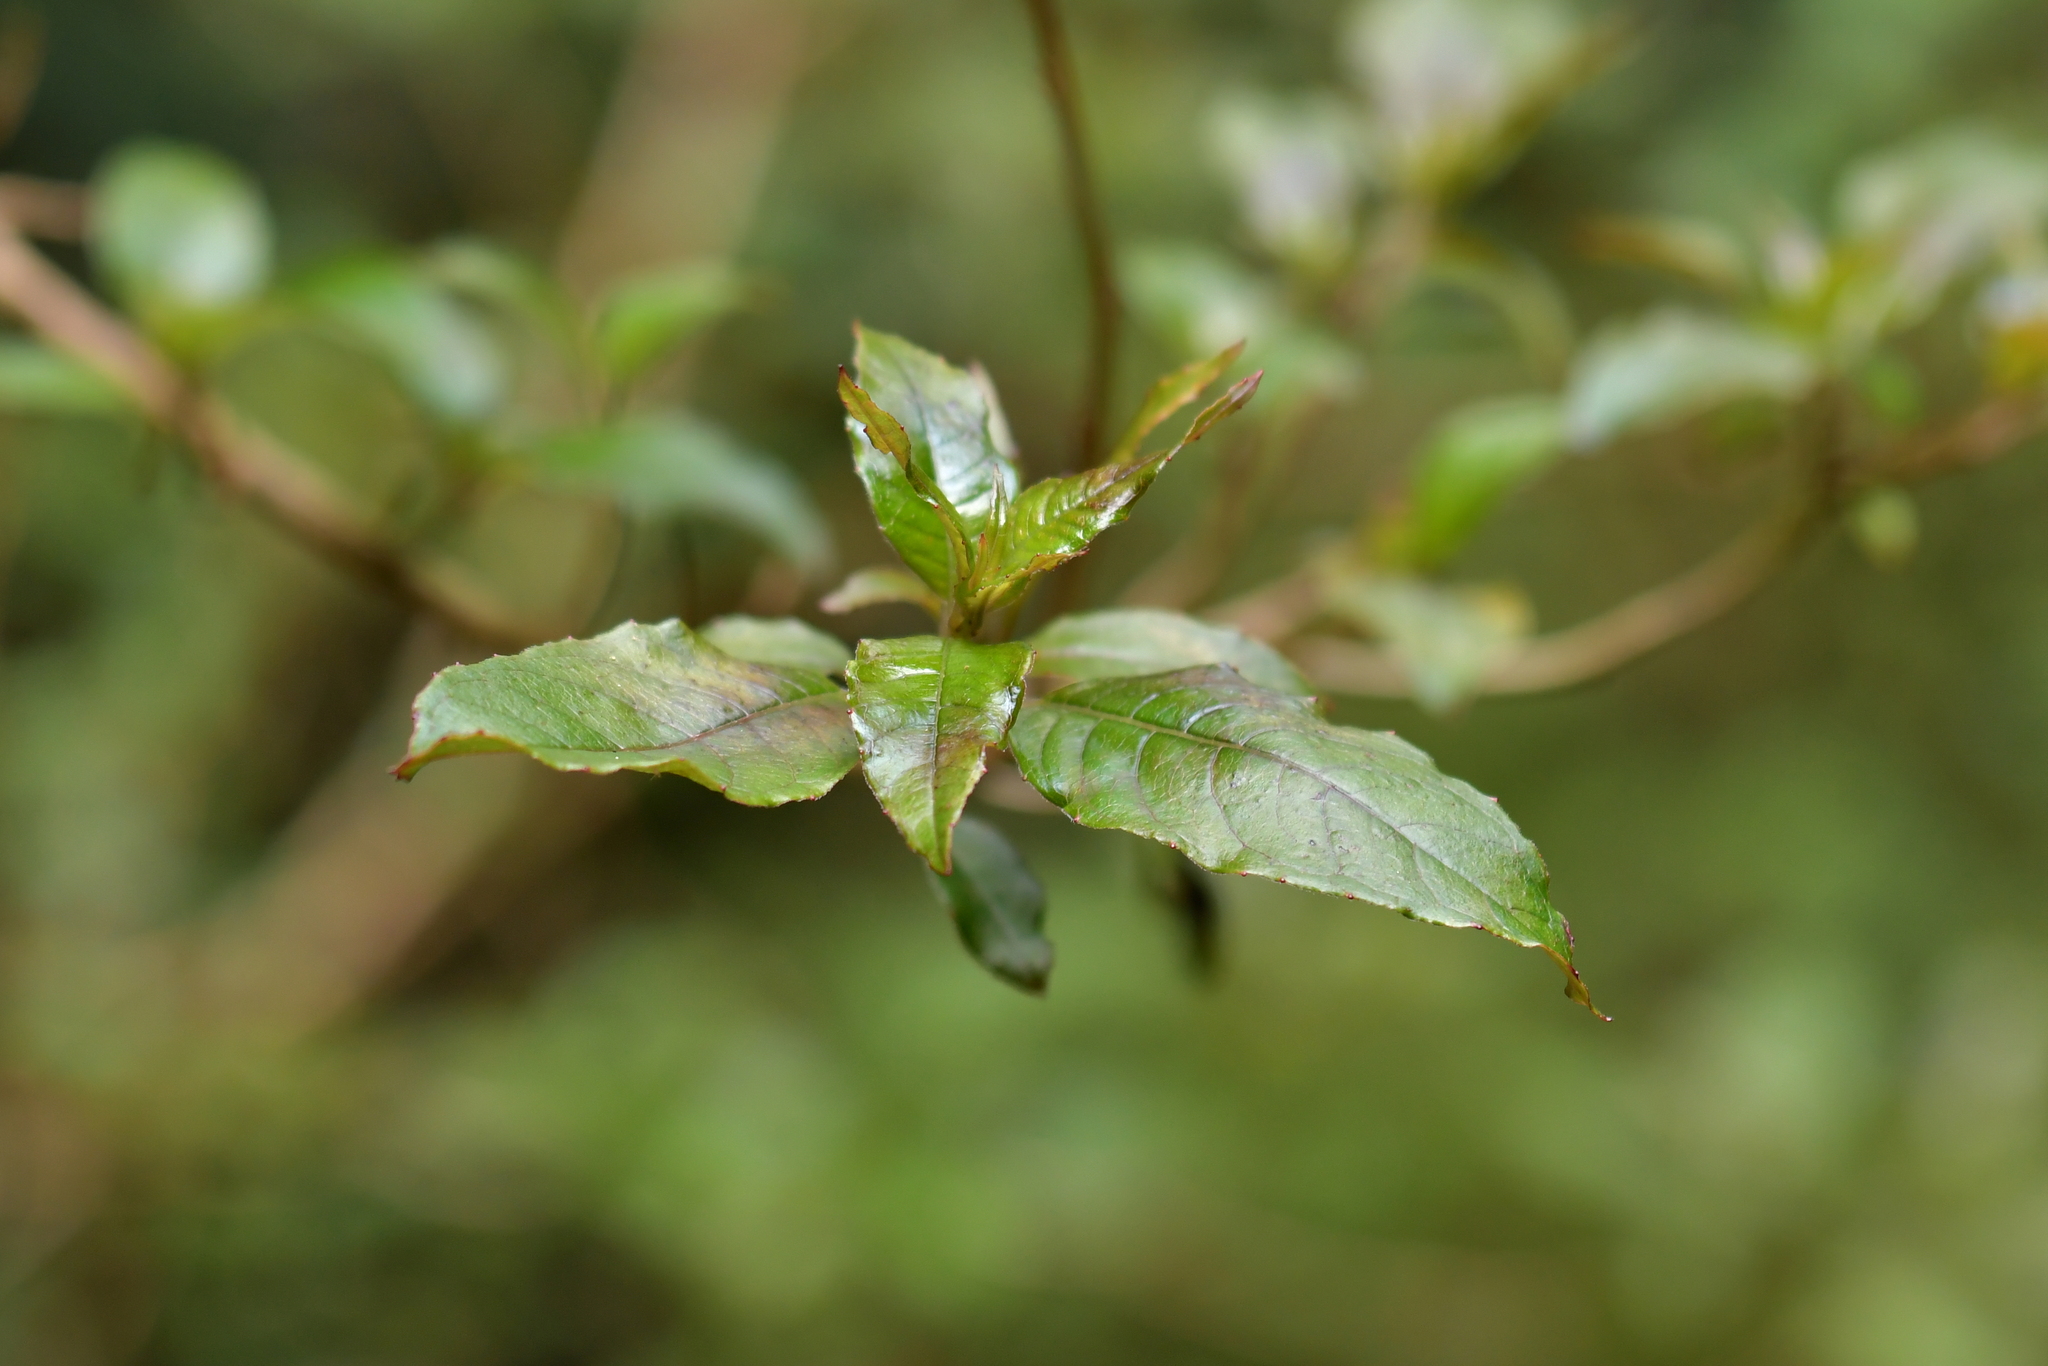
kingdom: Plantae
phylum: Tracheophyta
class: Magnoliopsida
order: Myrtales
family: Onagraceae
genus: Fuchsia
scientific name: Fuchsia excorticata
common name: Tree fuchsia
